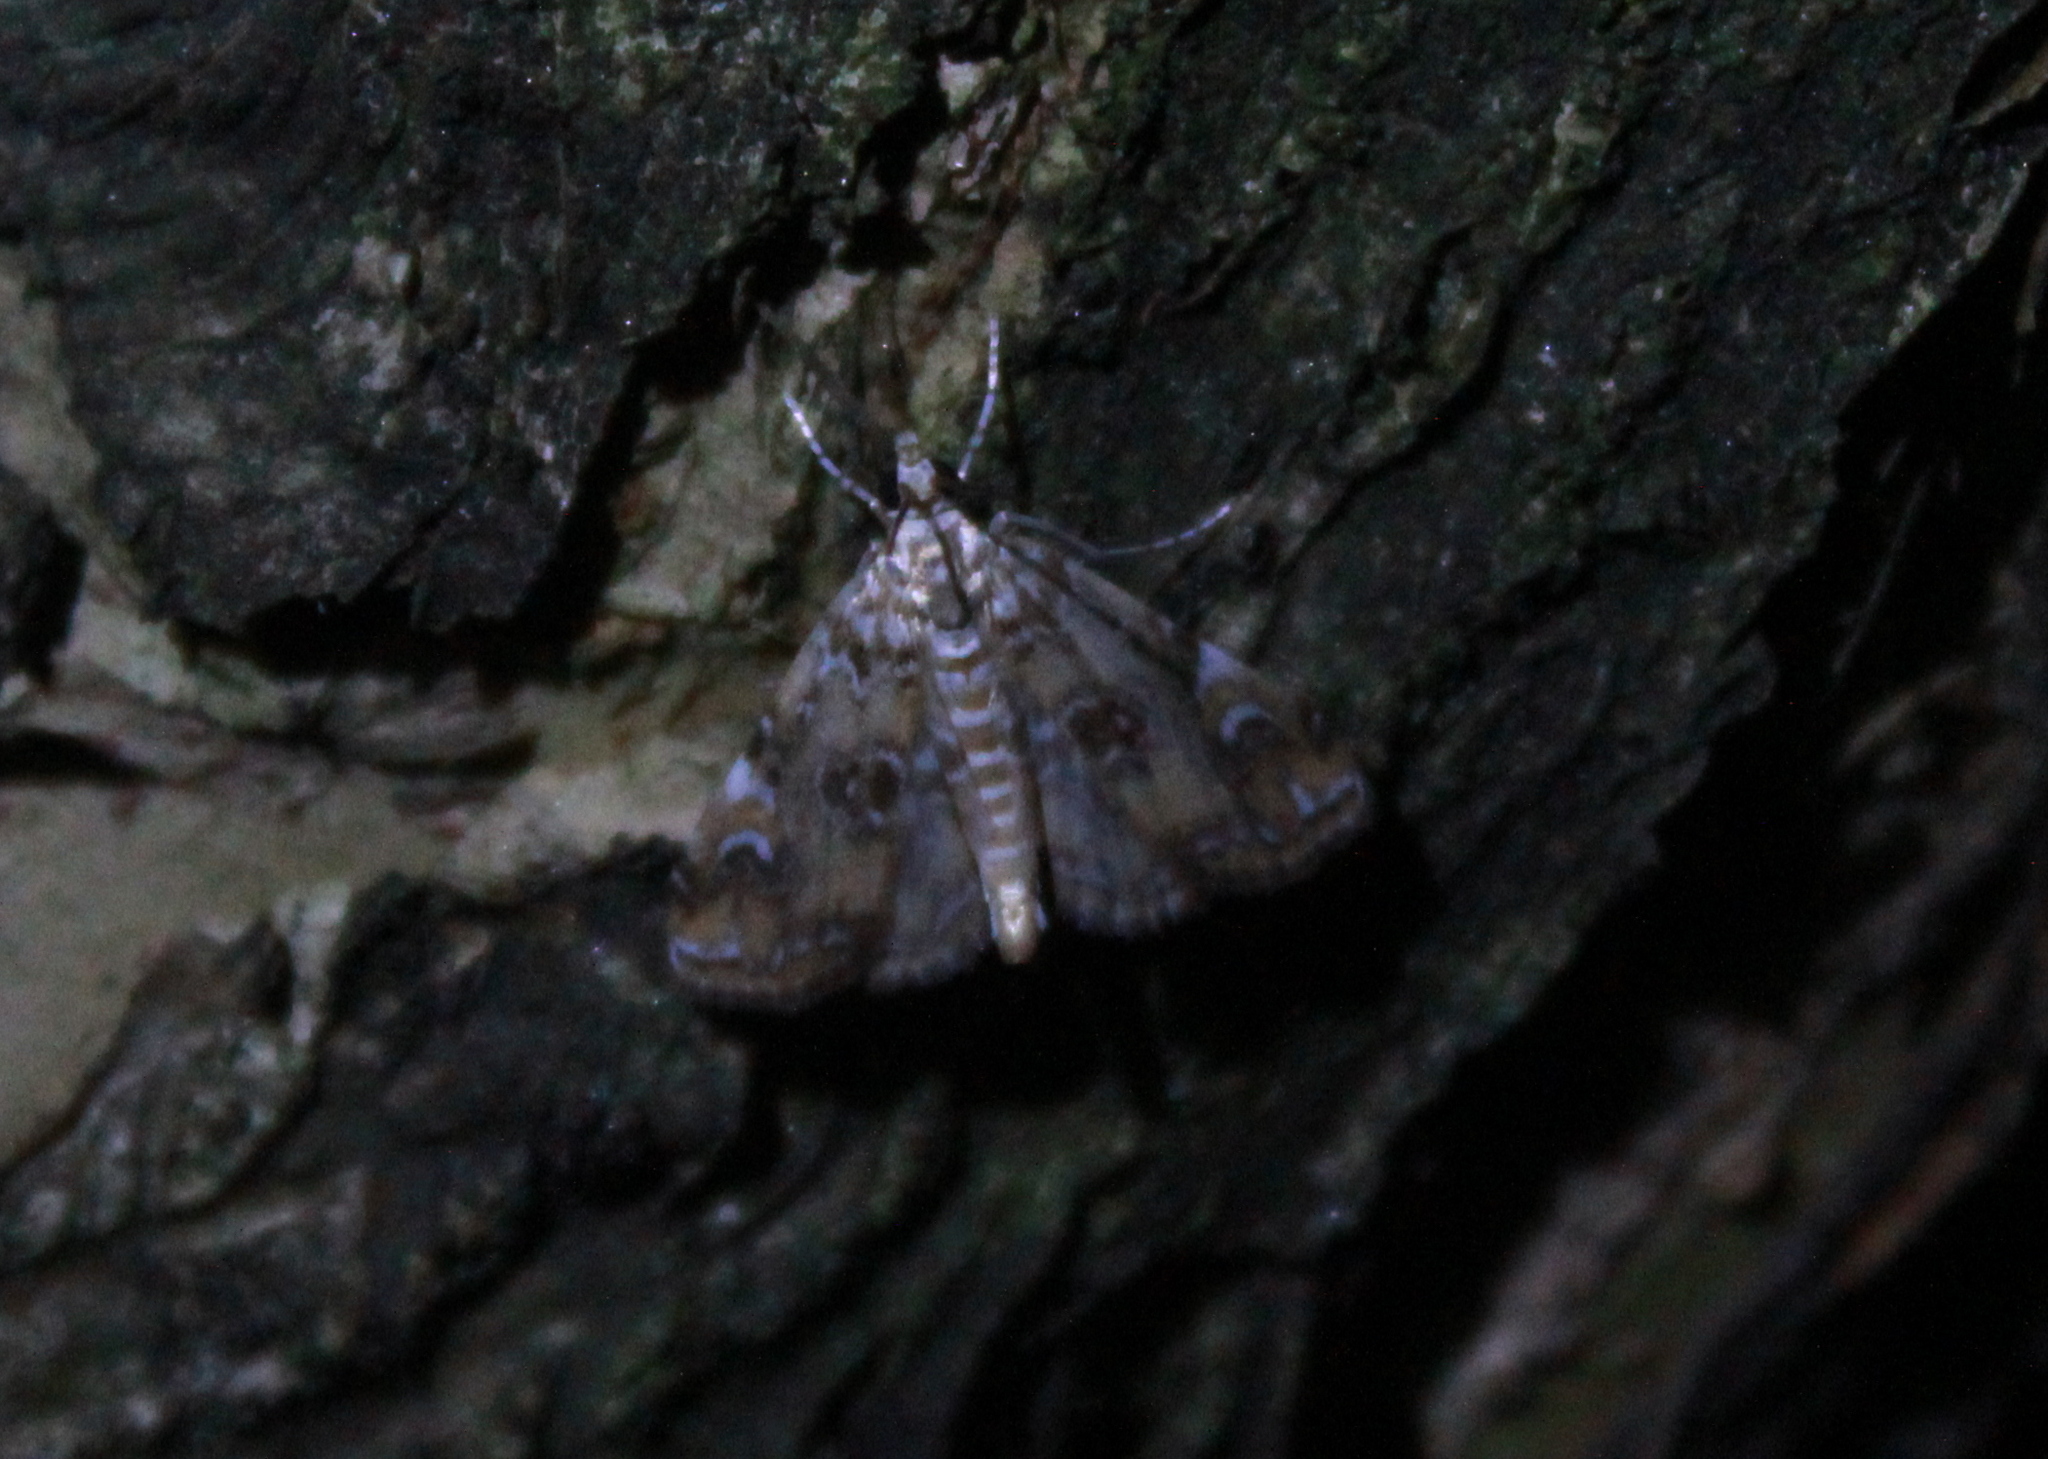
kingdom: Animalia
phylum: Arthropoda
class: Insecta
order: Lepidoptera
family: Crambidae
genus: Elophila
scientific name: Elophila gyralis
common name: Waterlily borer moth
